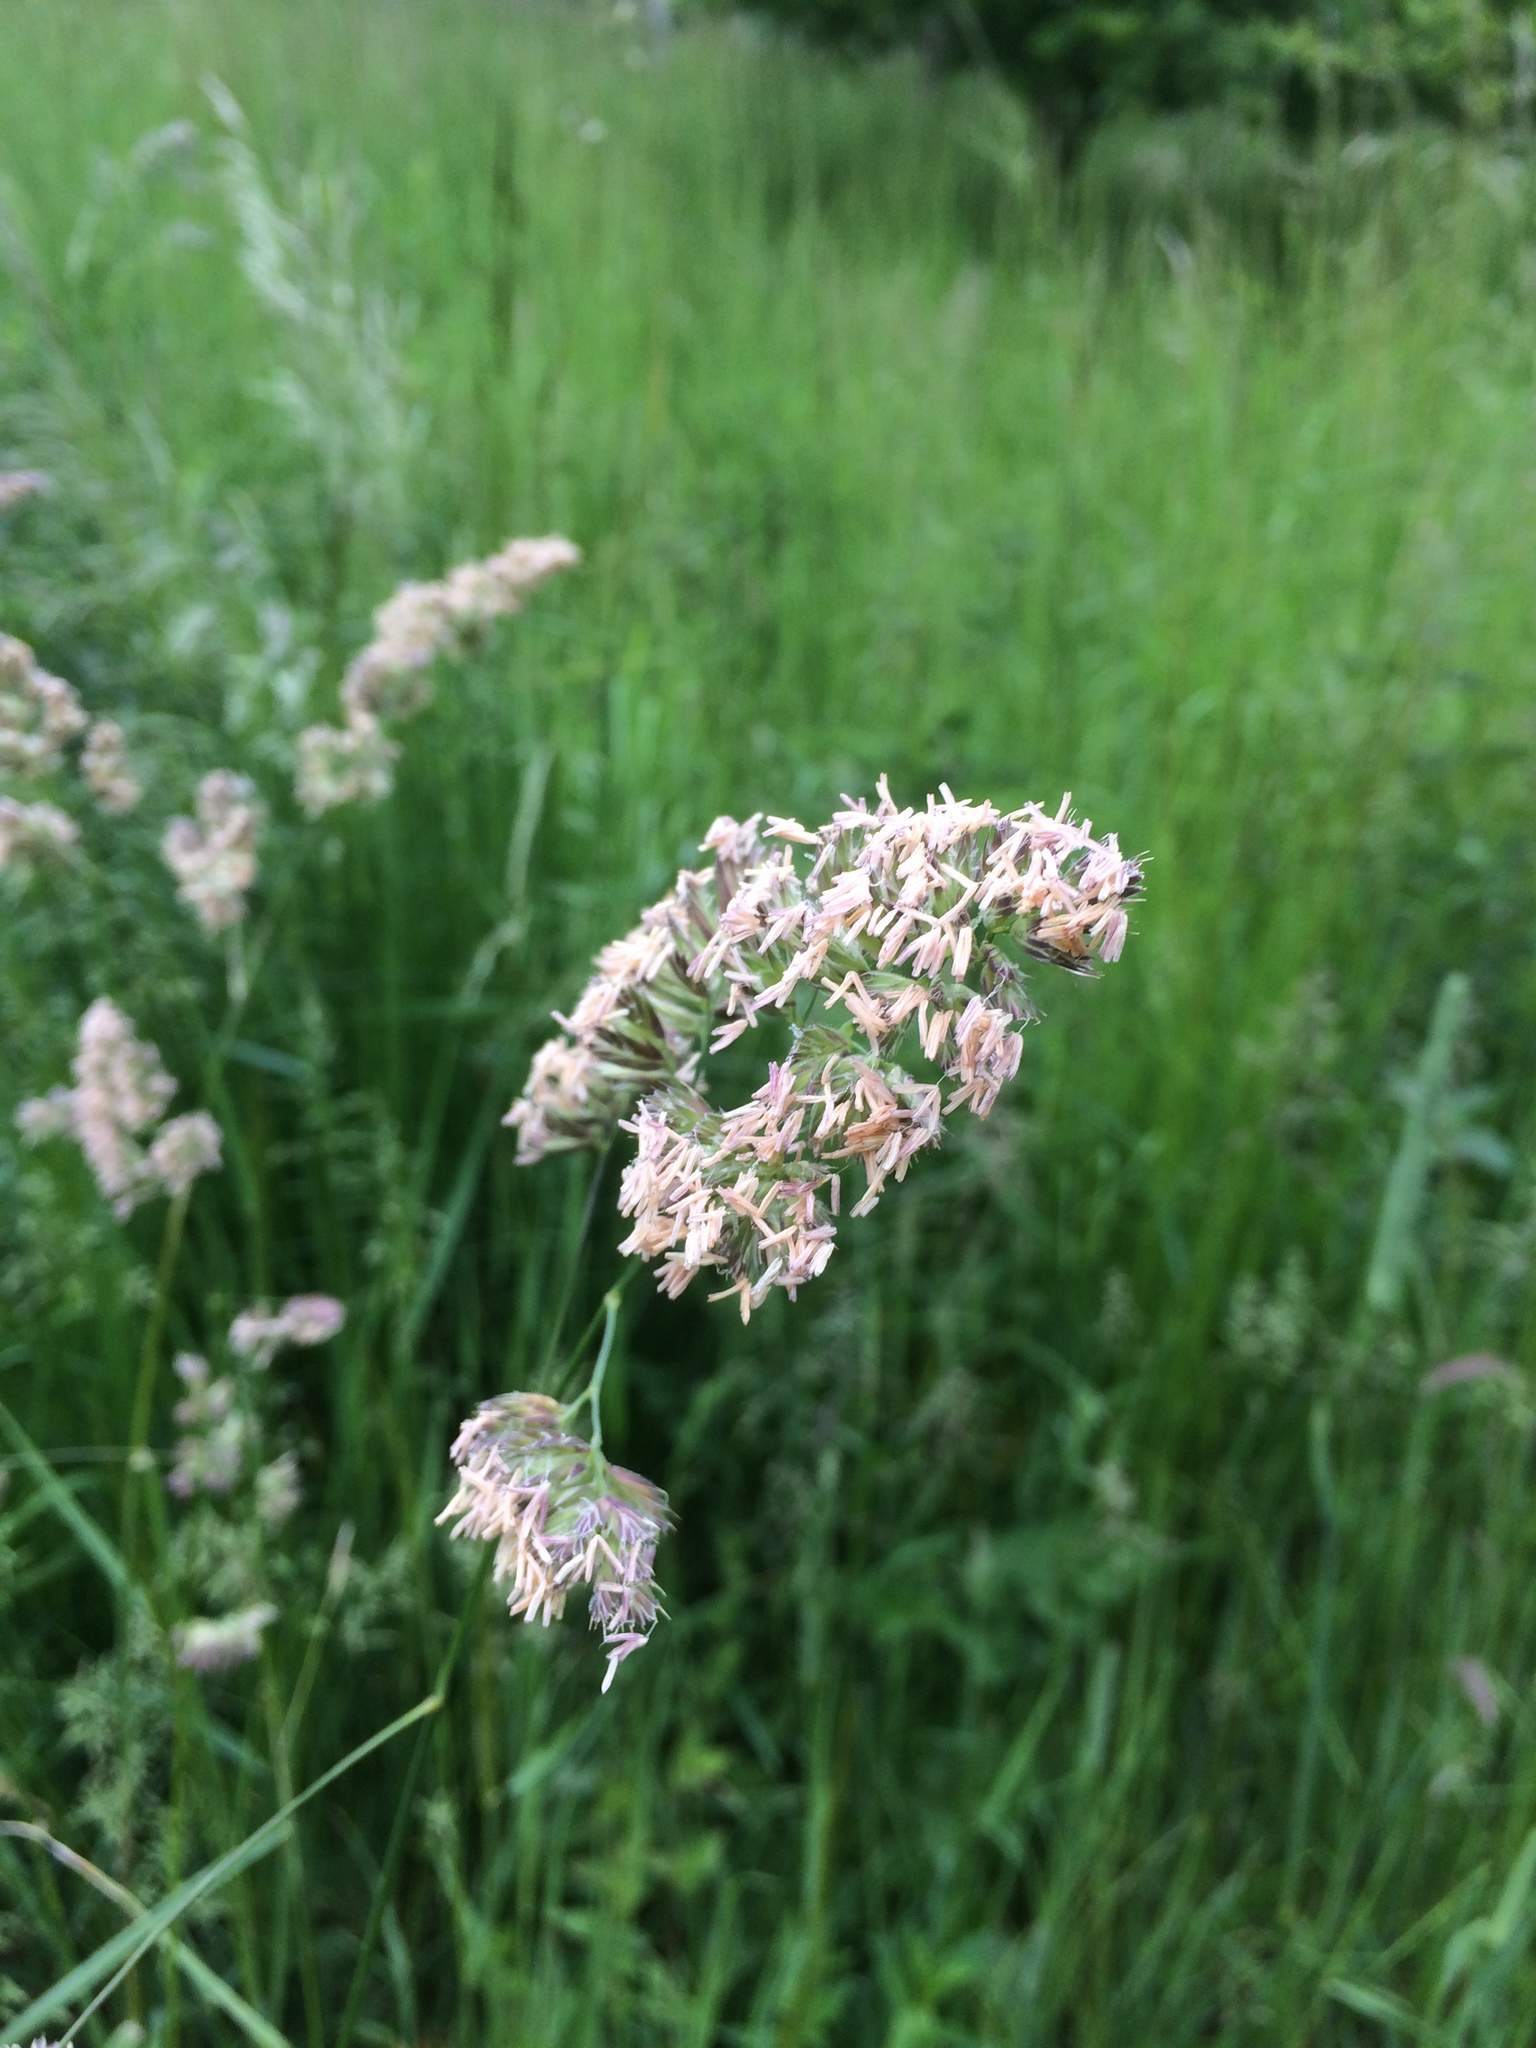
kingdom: Plantae
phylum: Tracheophyta
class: Liliopsida
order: Poales
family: Poaceae
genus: Dactylis
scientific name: Dactylis glomerata
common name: Orchardgrass
